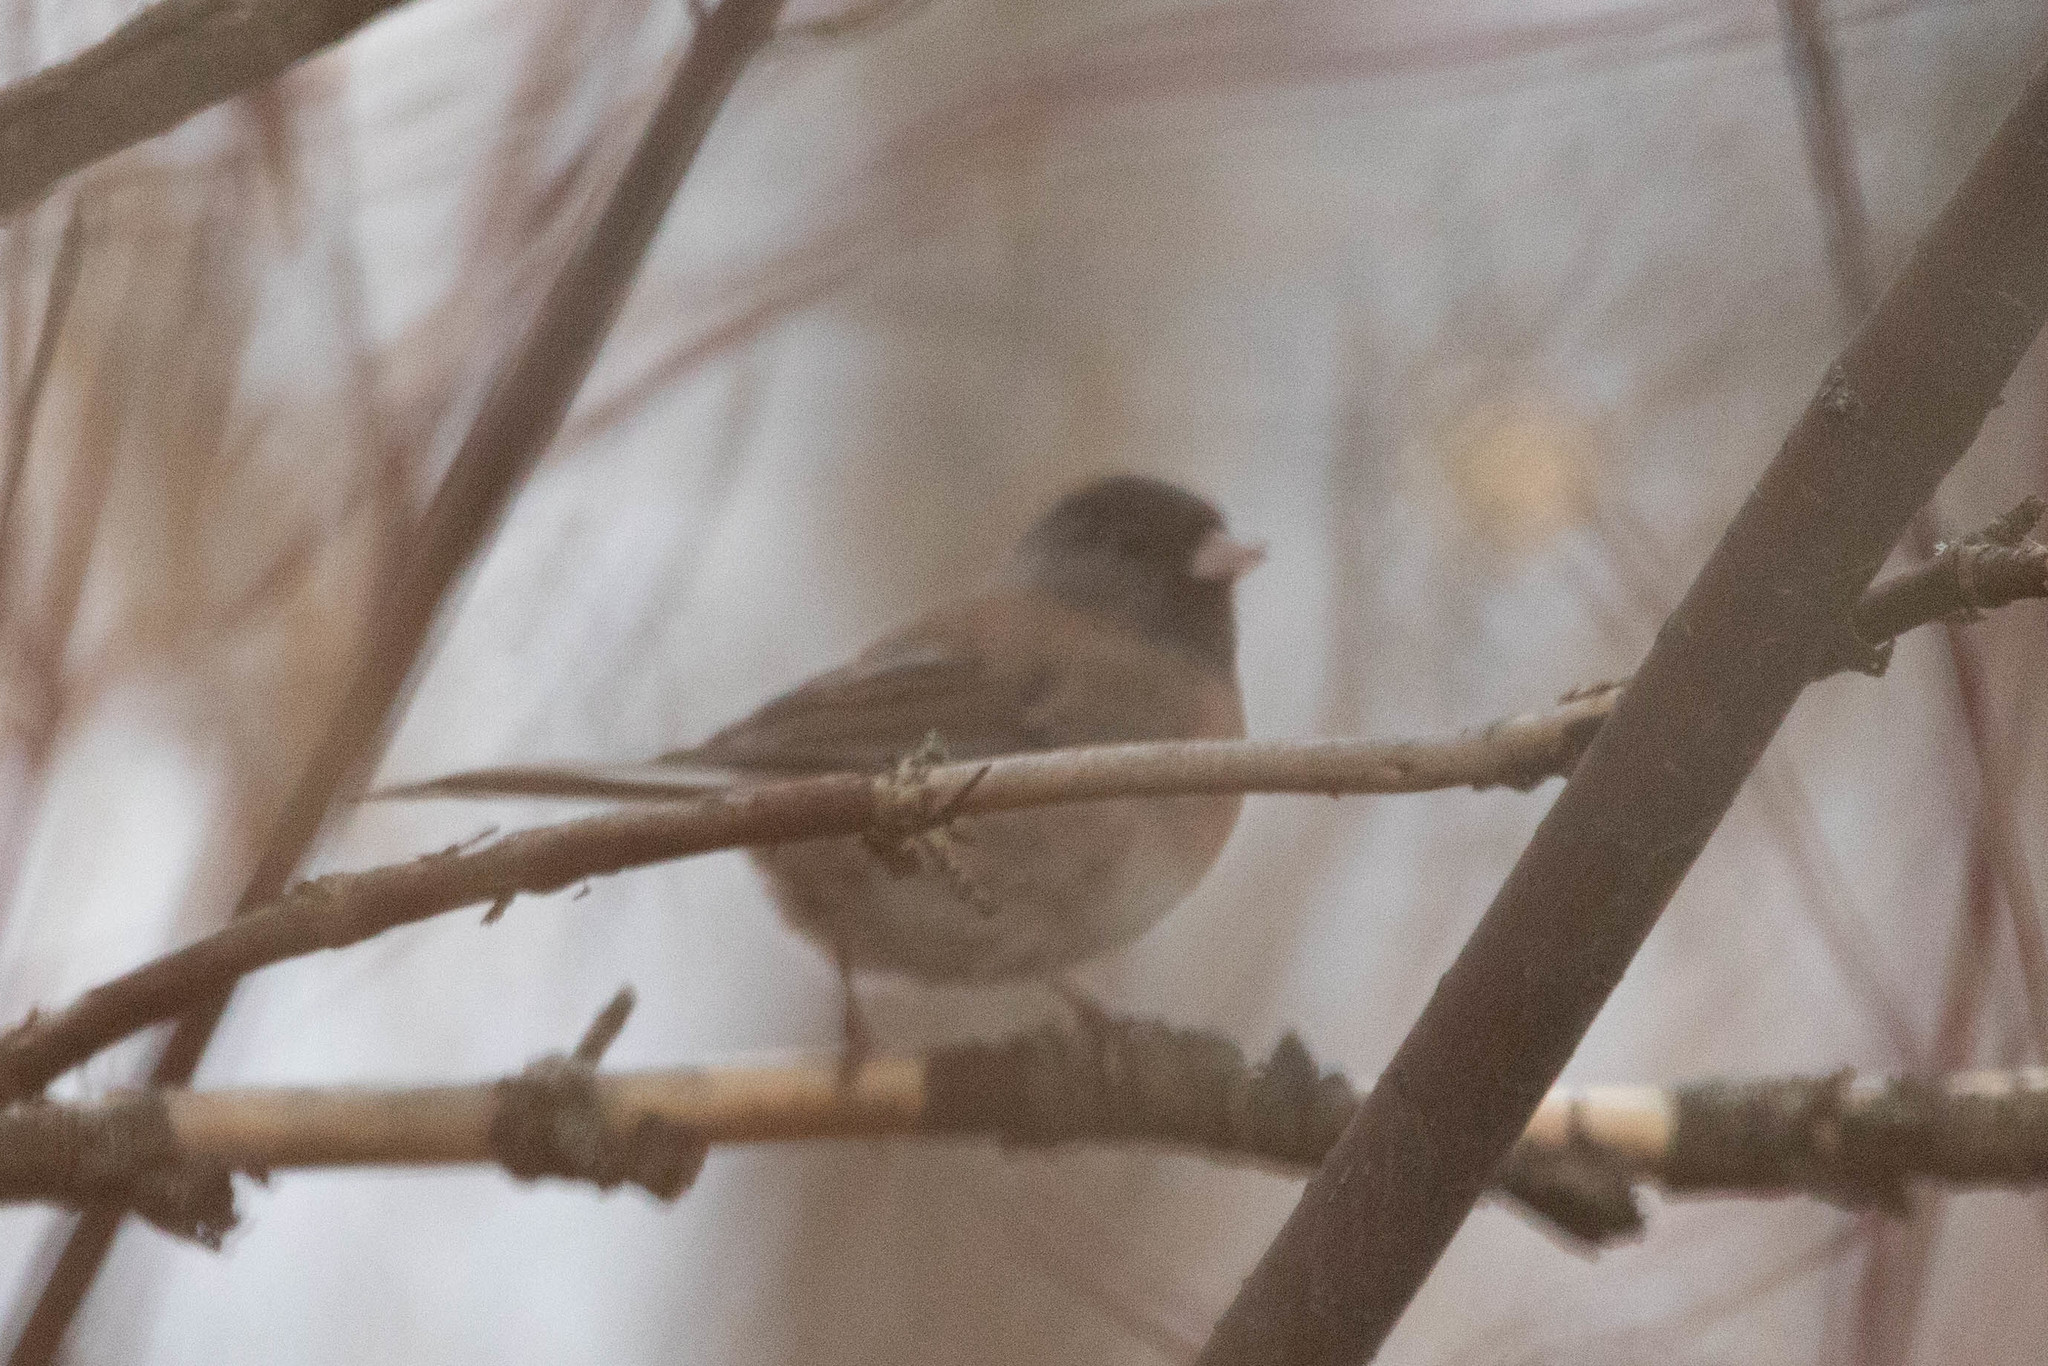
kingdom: Animalia
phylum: Chordata
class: Aves
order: Passeriformes
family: Passerellidae
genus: Junco
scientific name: Junco hyemalis
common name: Dark-eyed junco
